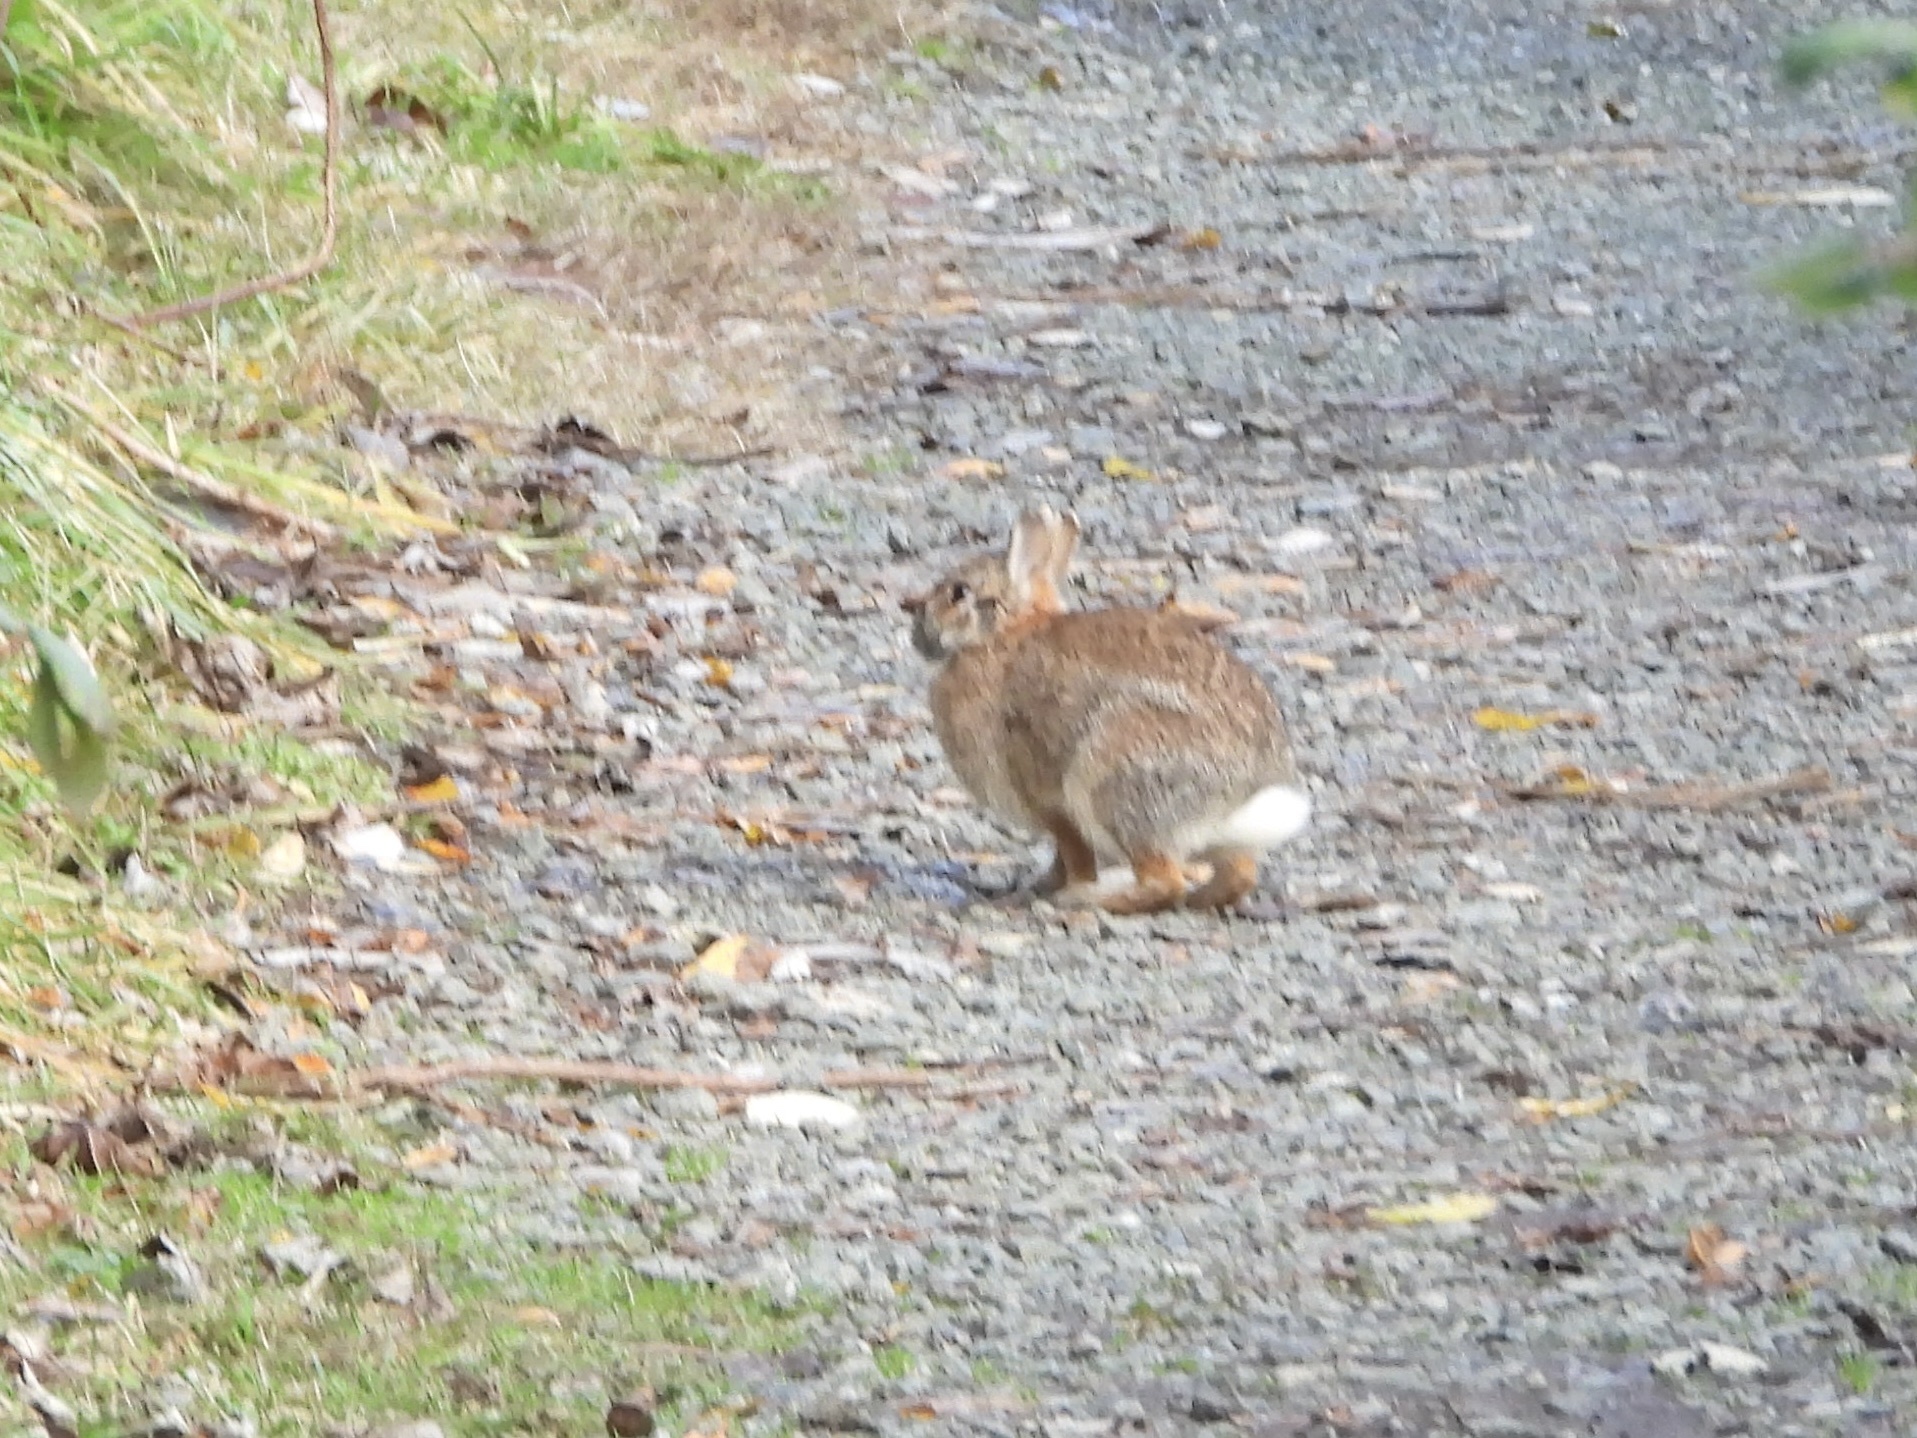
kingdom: Animalia
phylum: Chordata
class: Mammalia
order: Lagomorpha
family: Leporidae
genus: Sylvilagus
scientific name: Sylvilagus floridanus
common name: Eastern cottontail
